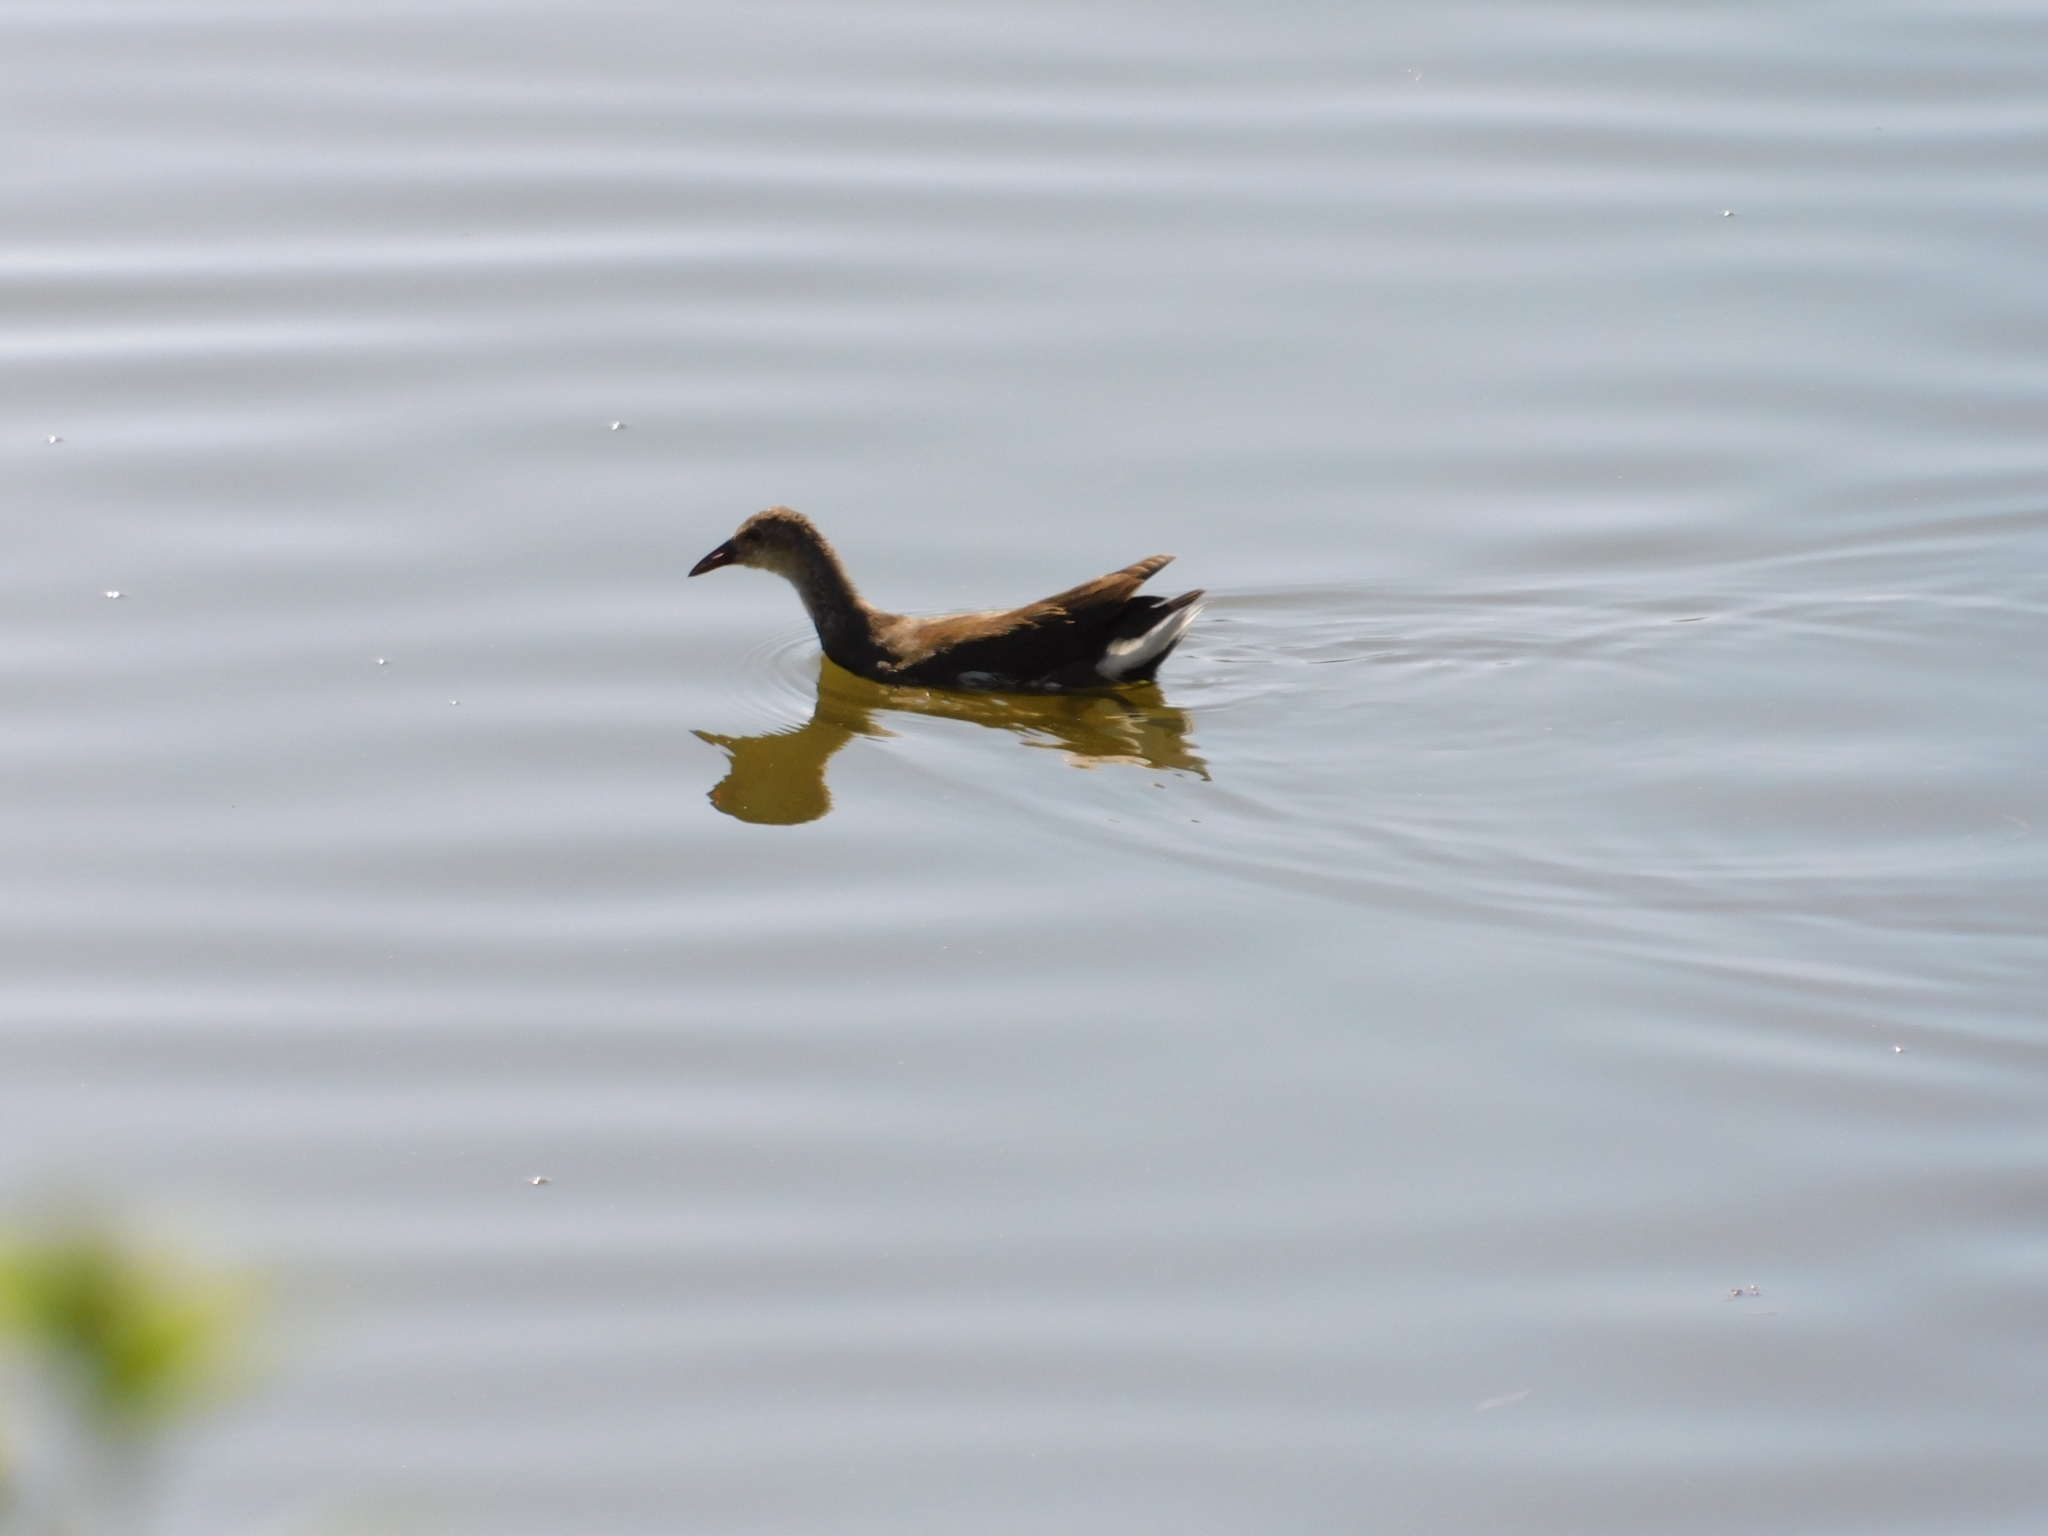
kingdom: Animalia
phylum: Chordata
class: Aves
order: Gruiformes
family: Rallidae
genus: Gallinula
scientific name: Gallinula chloropus
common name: Common moorhen
